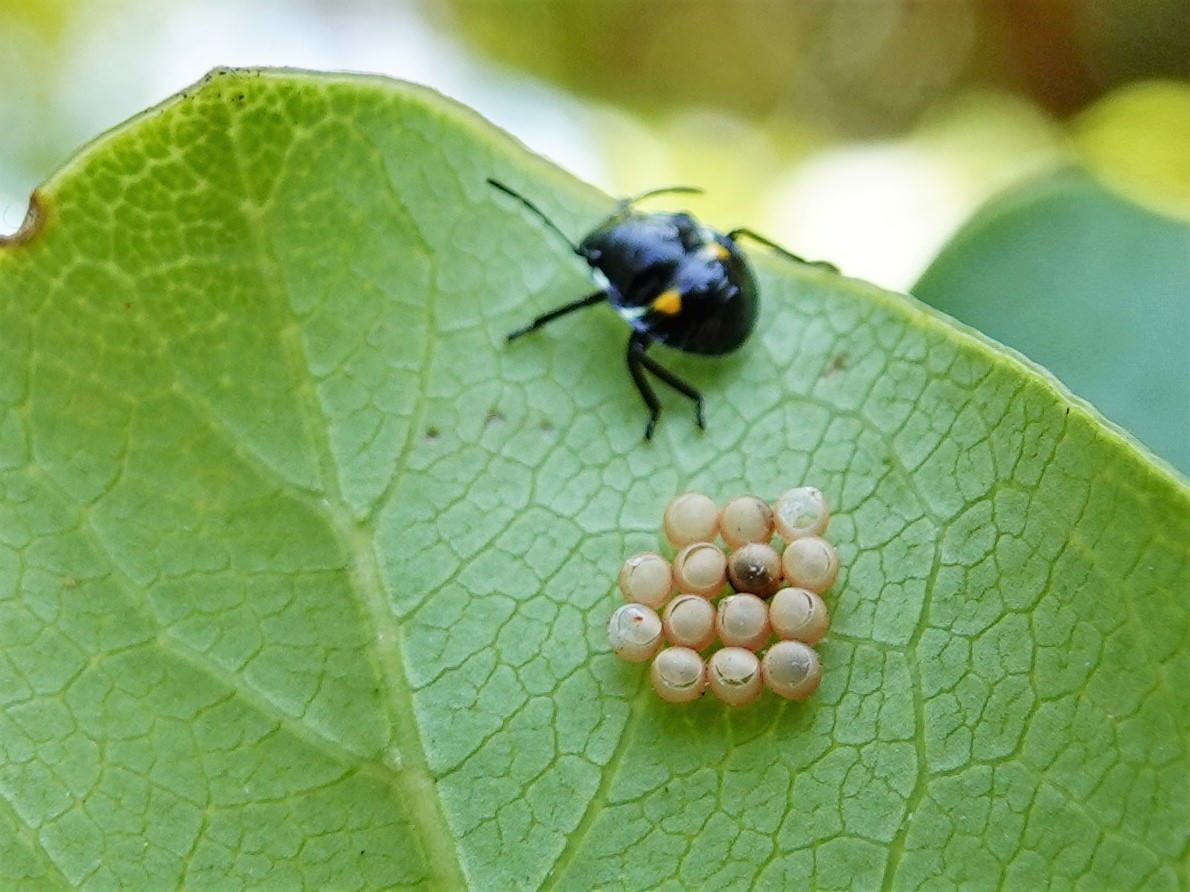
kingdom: Animalia
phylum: Arthropoda
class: Insecta
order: Hemiptera
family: Pentatomidae
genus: Glaucias
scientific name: Glaucias amyota
